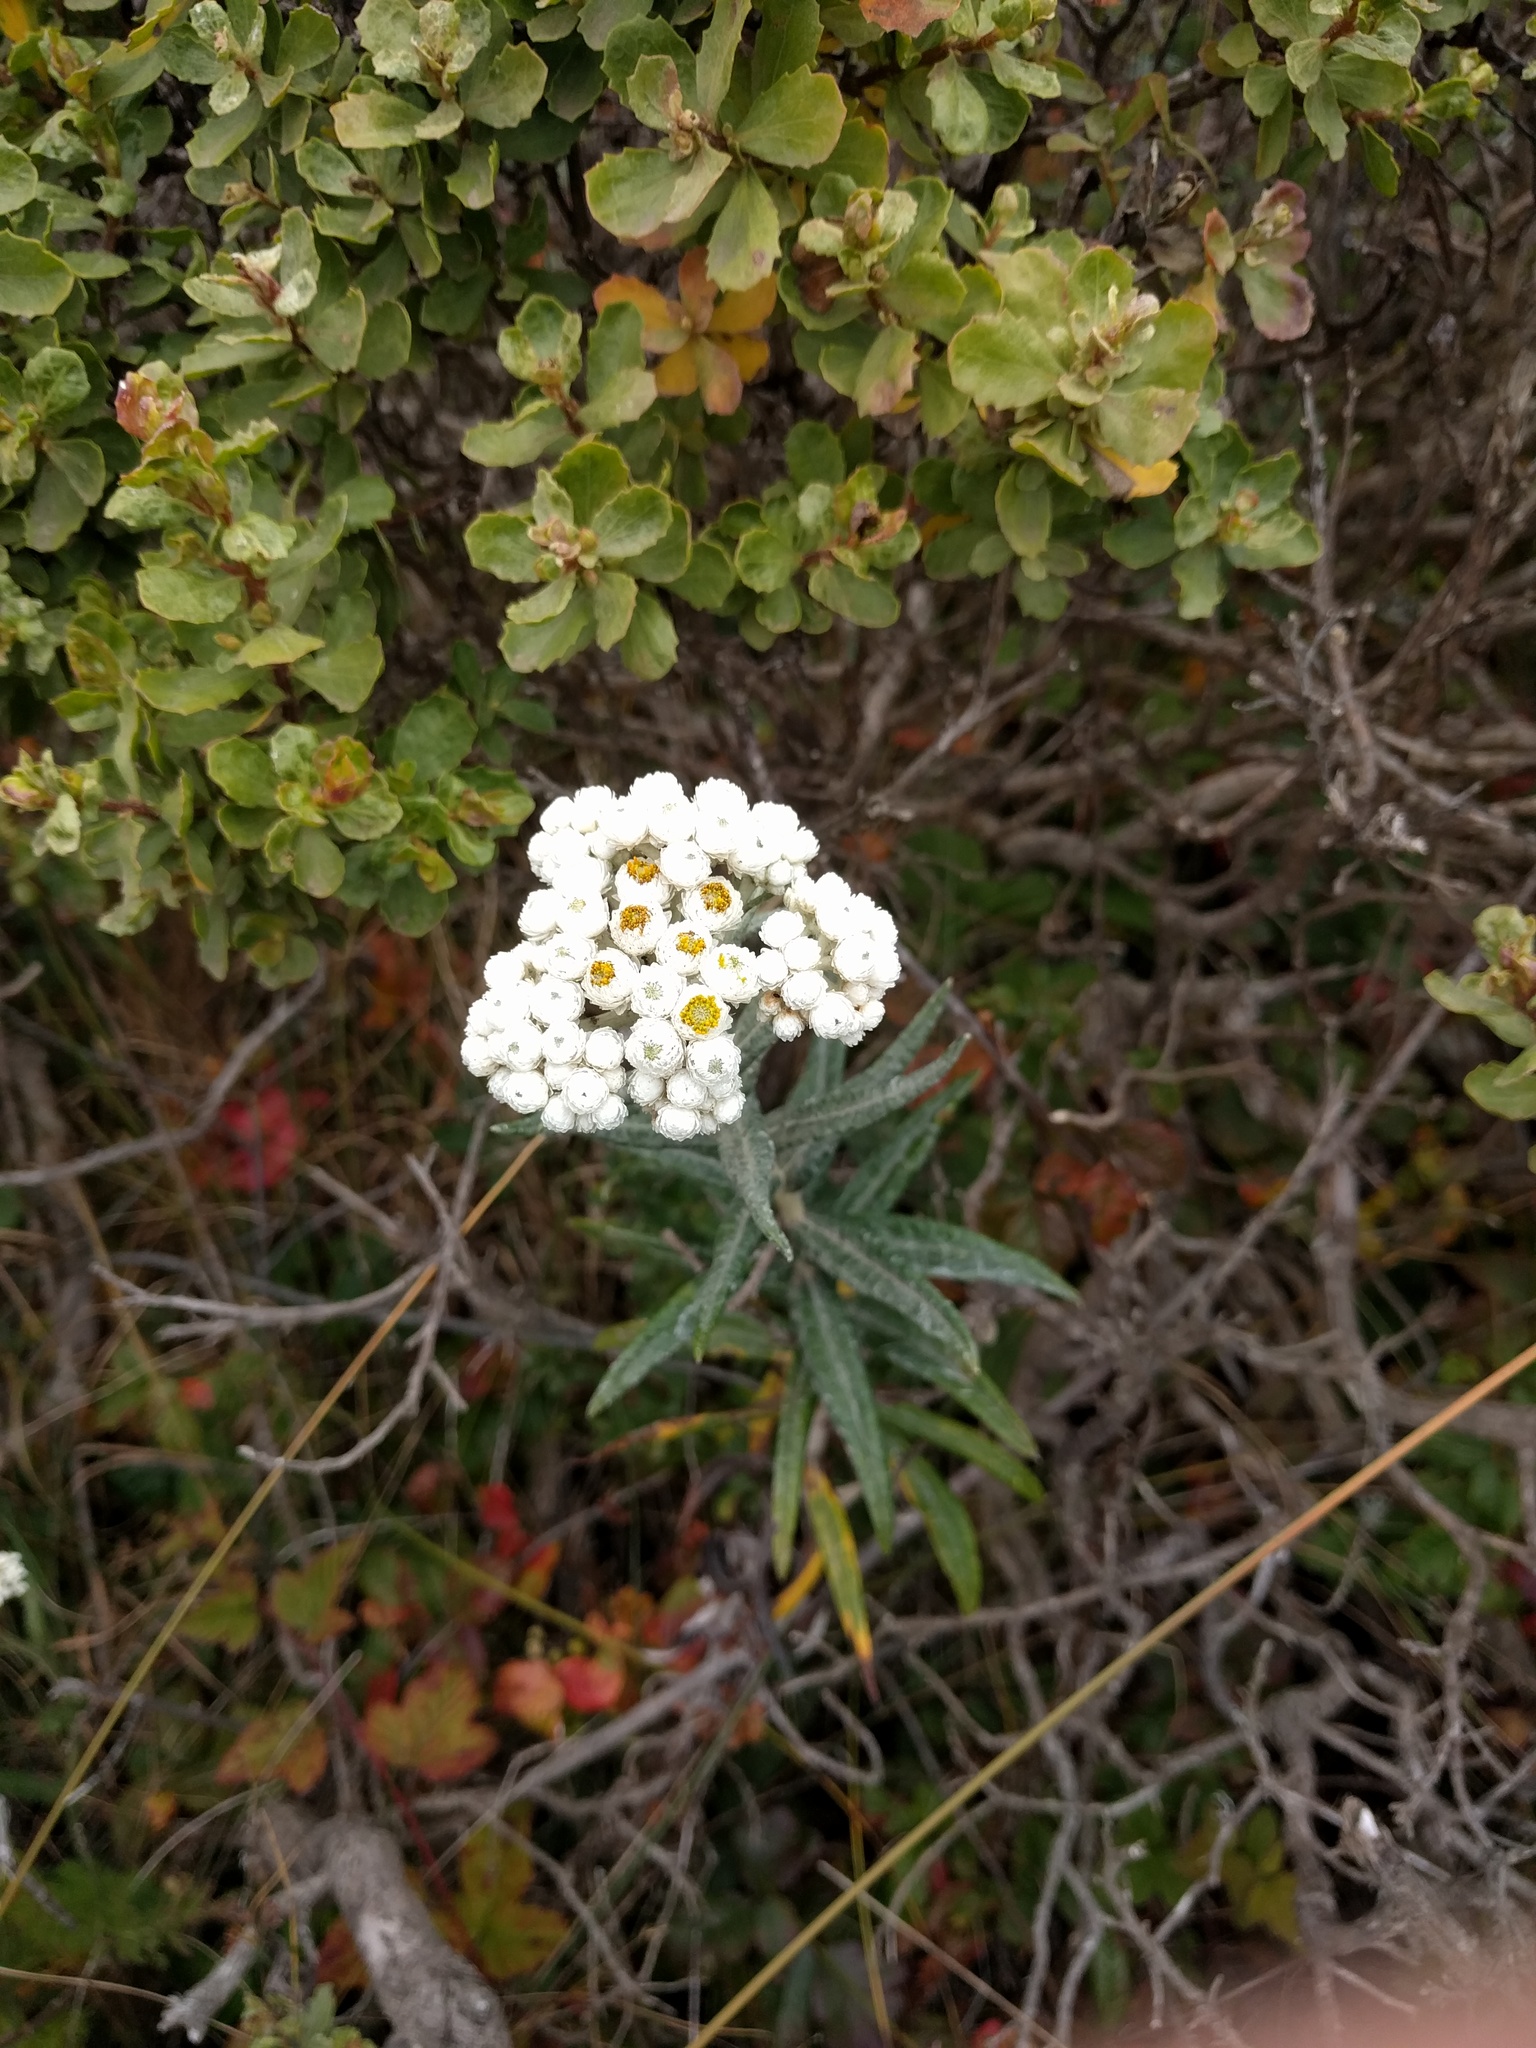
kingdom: Plantae
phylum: Tracheophyta
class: Magnoliopsida
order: Asterales
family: Asteraceae
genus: Anaphalis
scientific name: Anaphalis margaritacea
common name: Pearly everlasting
